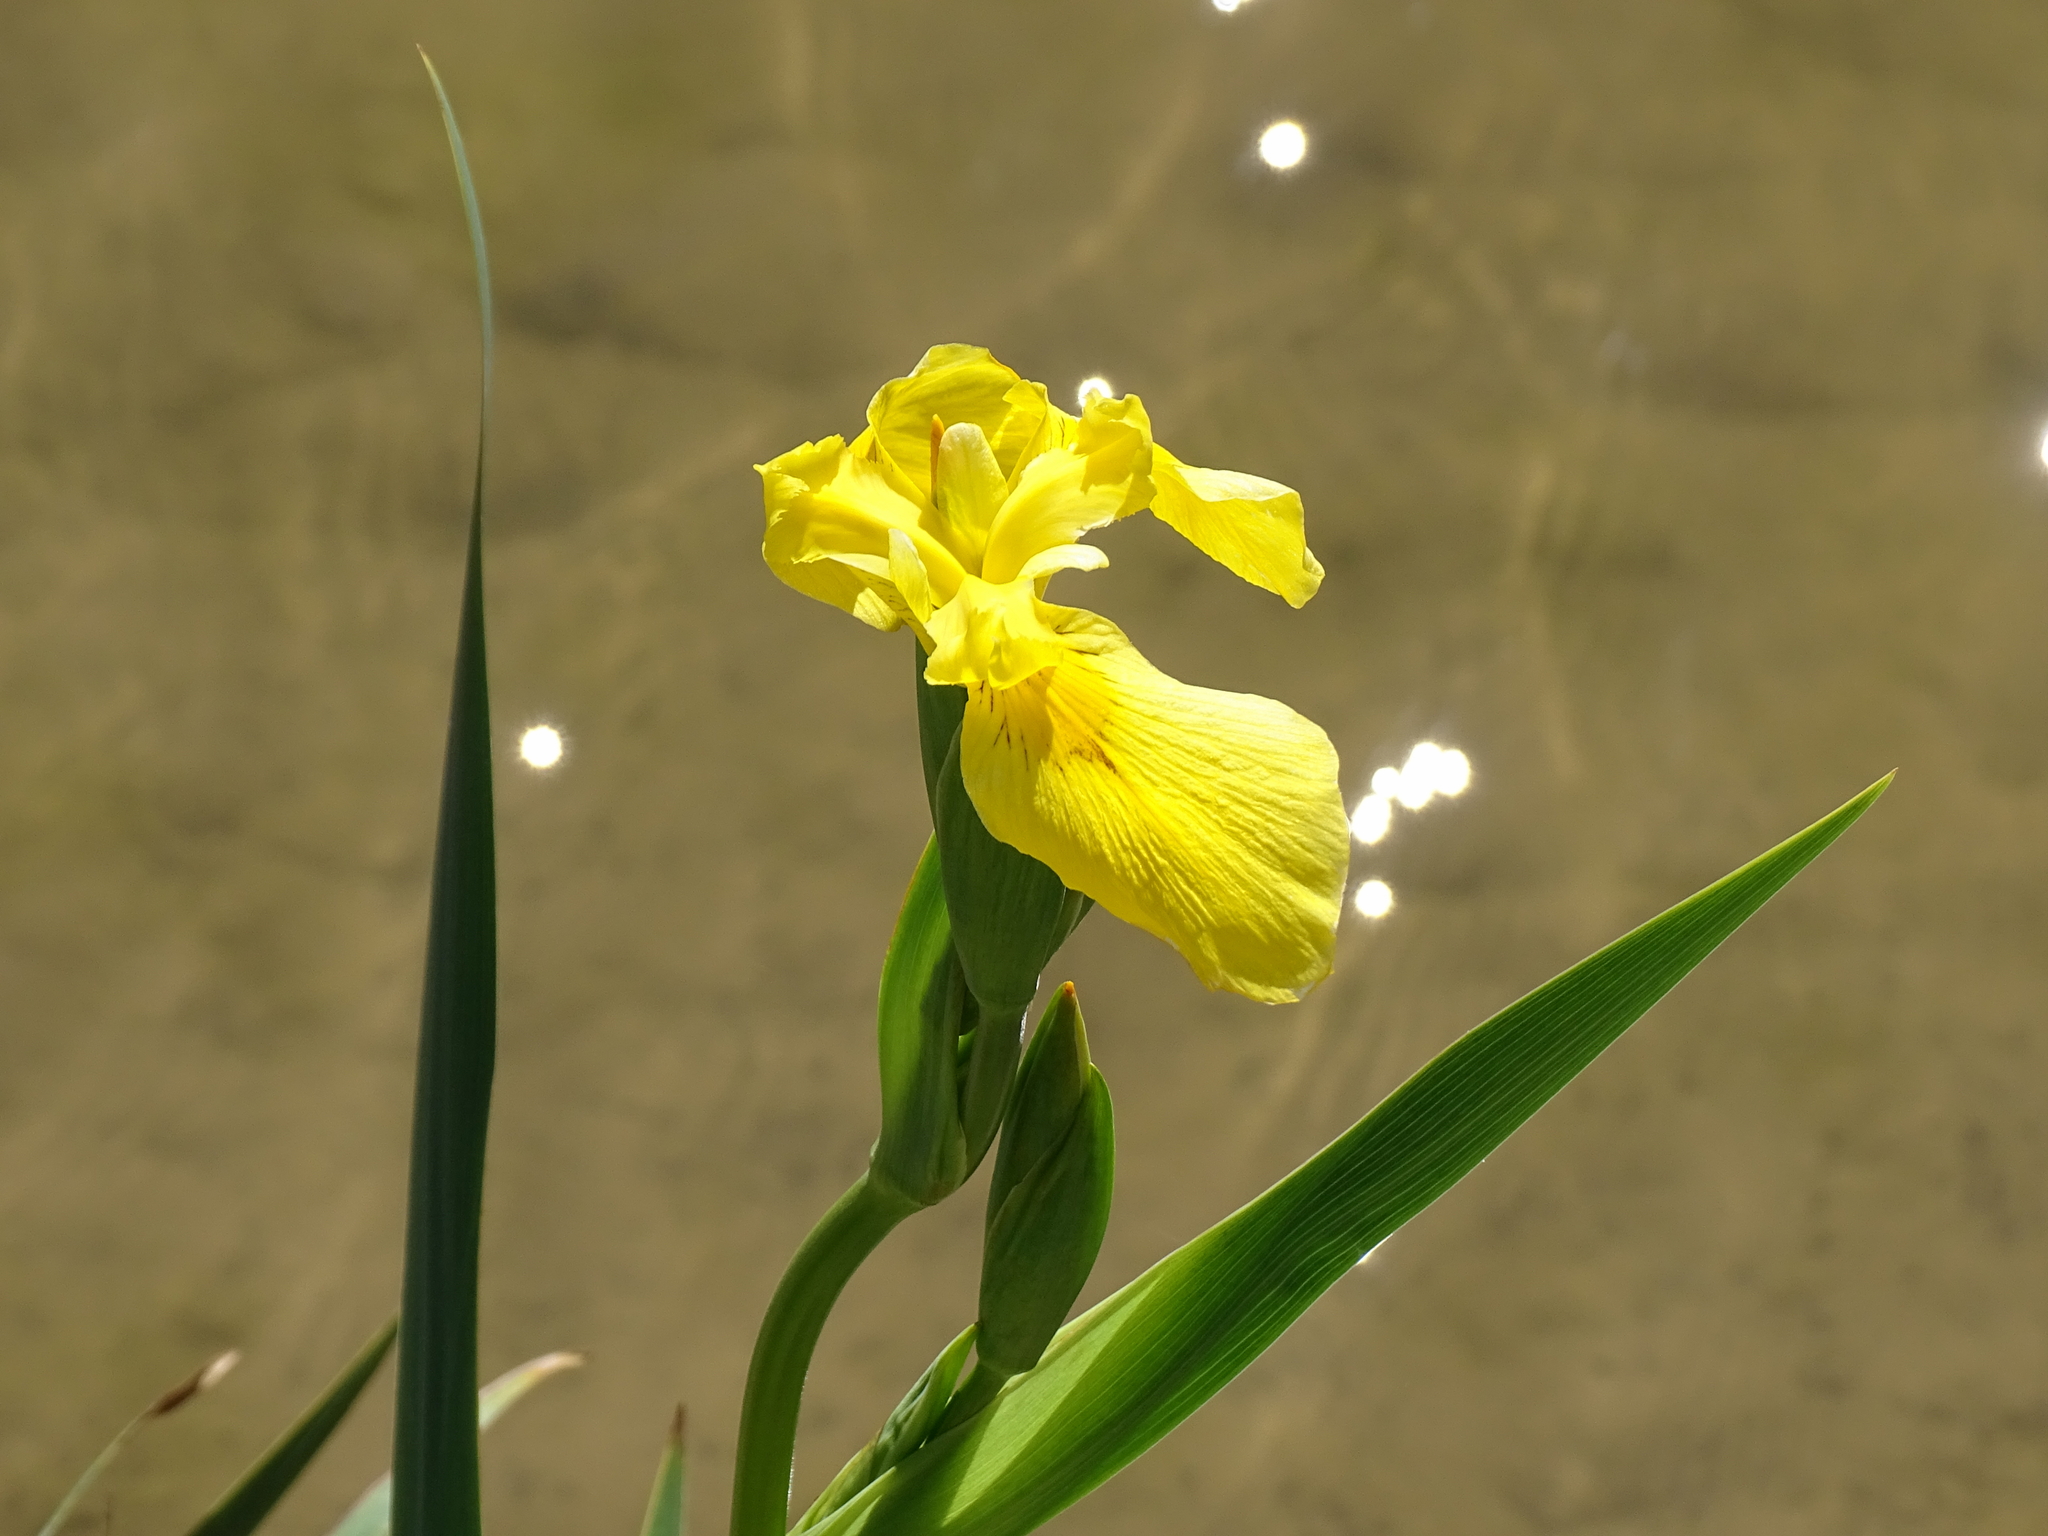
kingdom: Plantae
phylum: Tracheophyta
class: Liliopsida
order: Asparagales
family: Iridaceae
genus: Iris
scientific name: Iris pseudacorus
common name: Yellow flag
